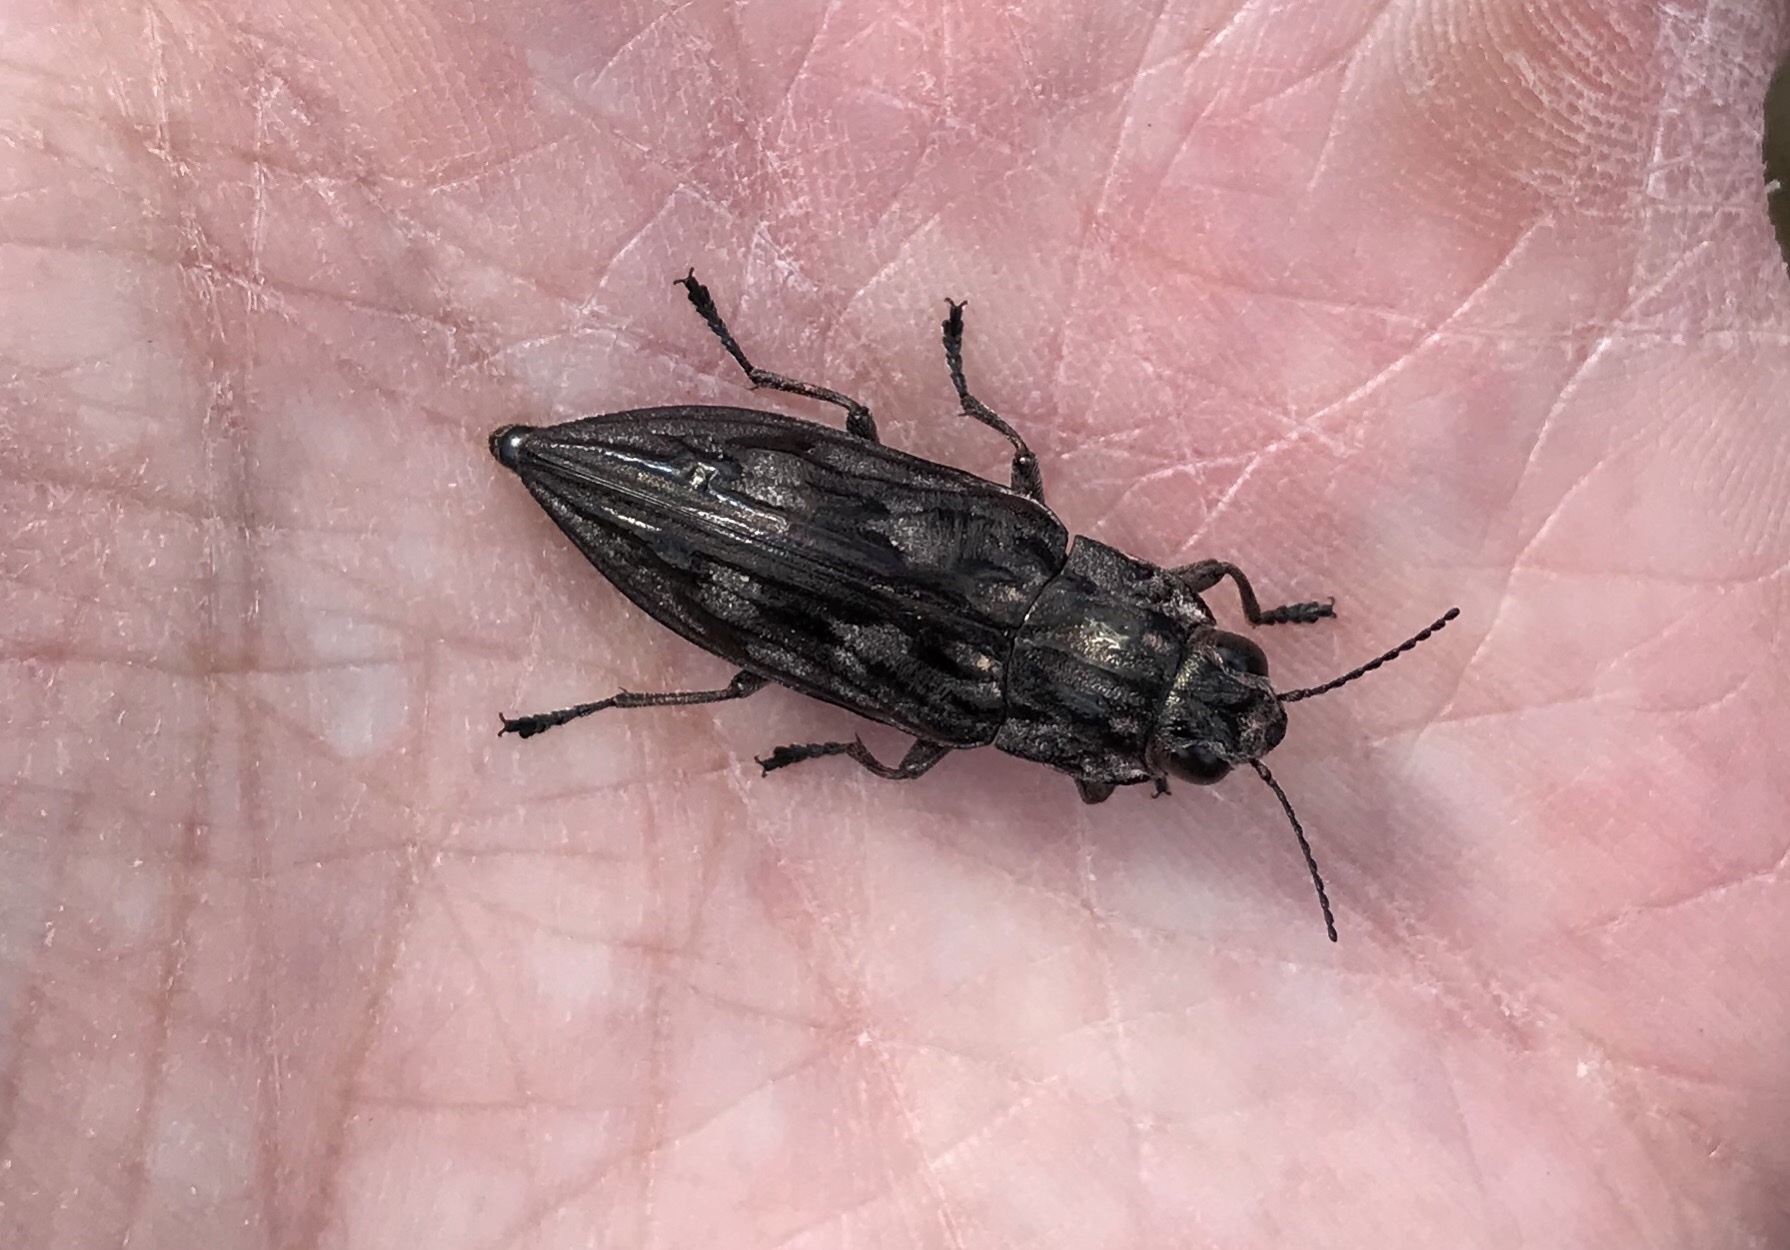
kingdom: Animalia
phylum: Arthropoda
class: Insecta
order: Coleoptera
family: Buprestidae
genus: Chalcophora
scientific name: Chalcophora virginiensis
